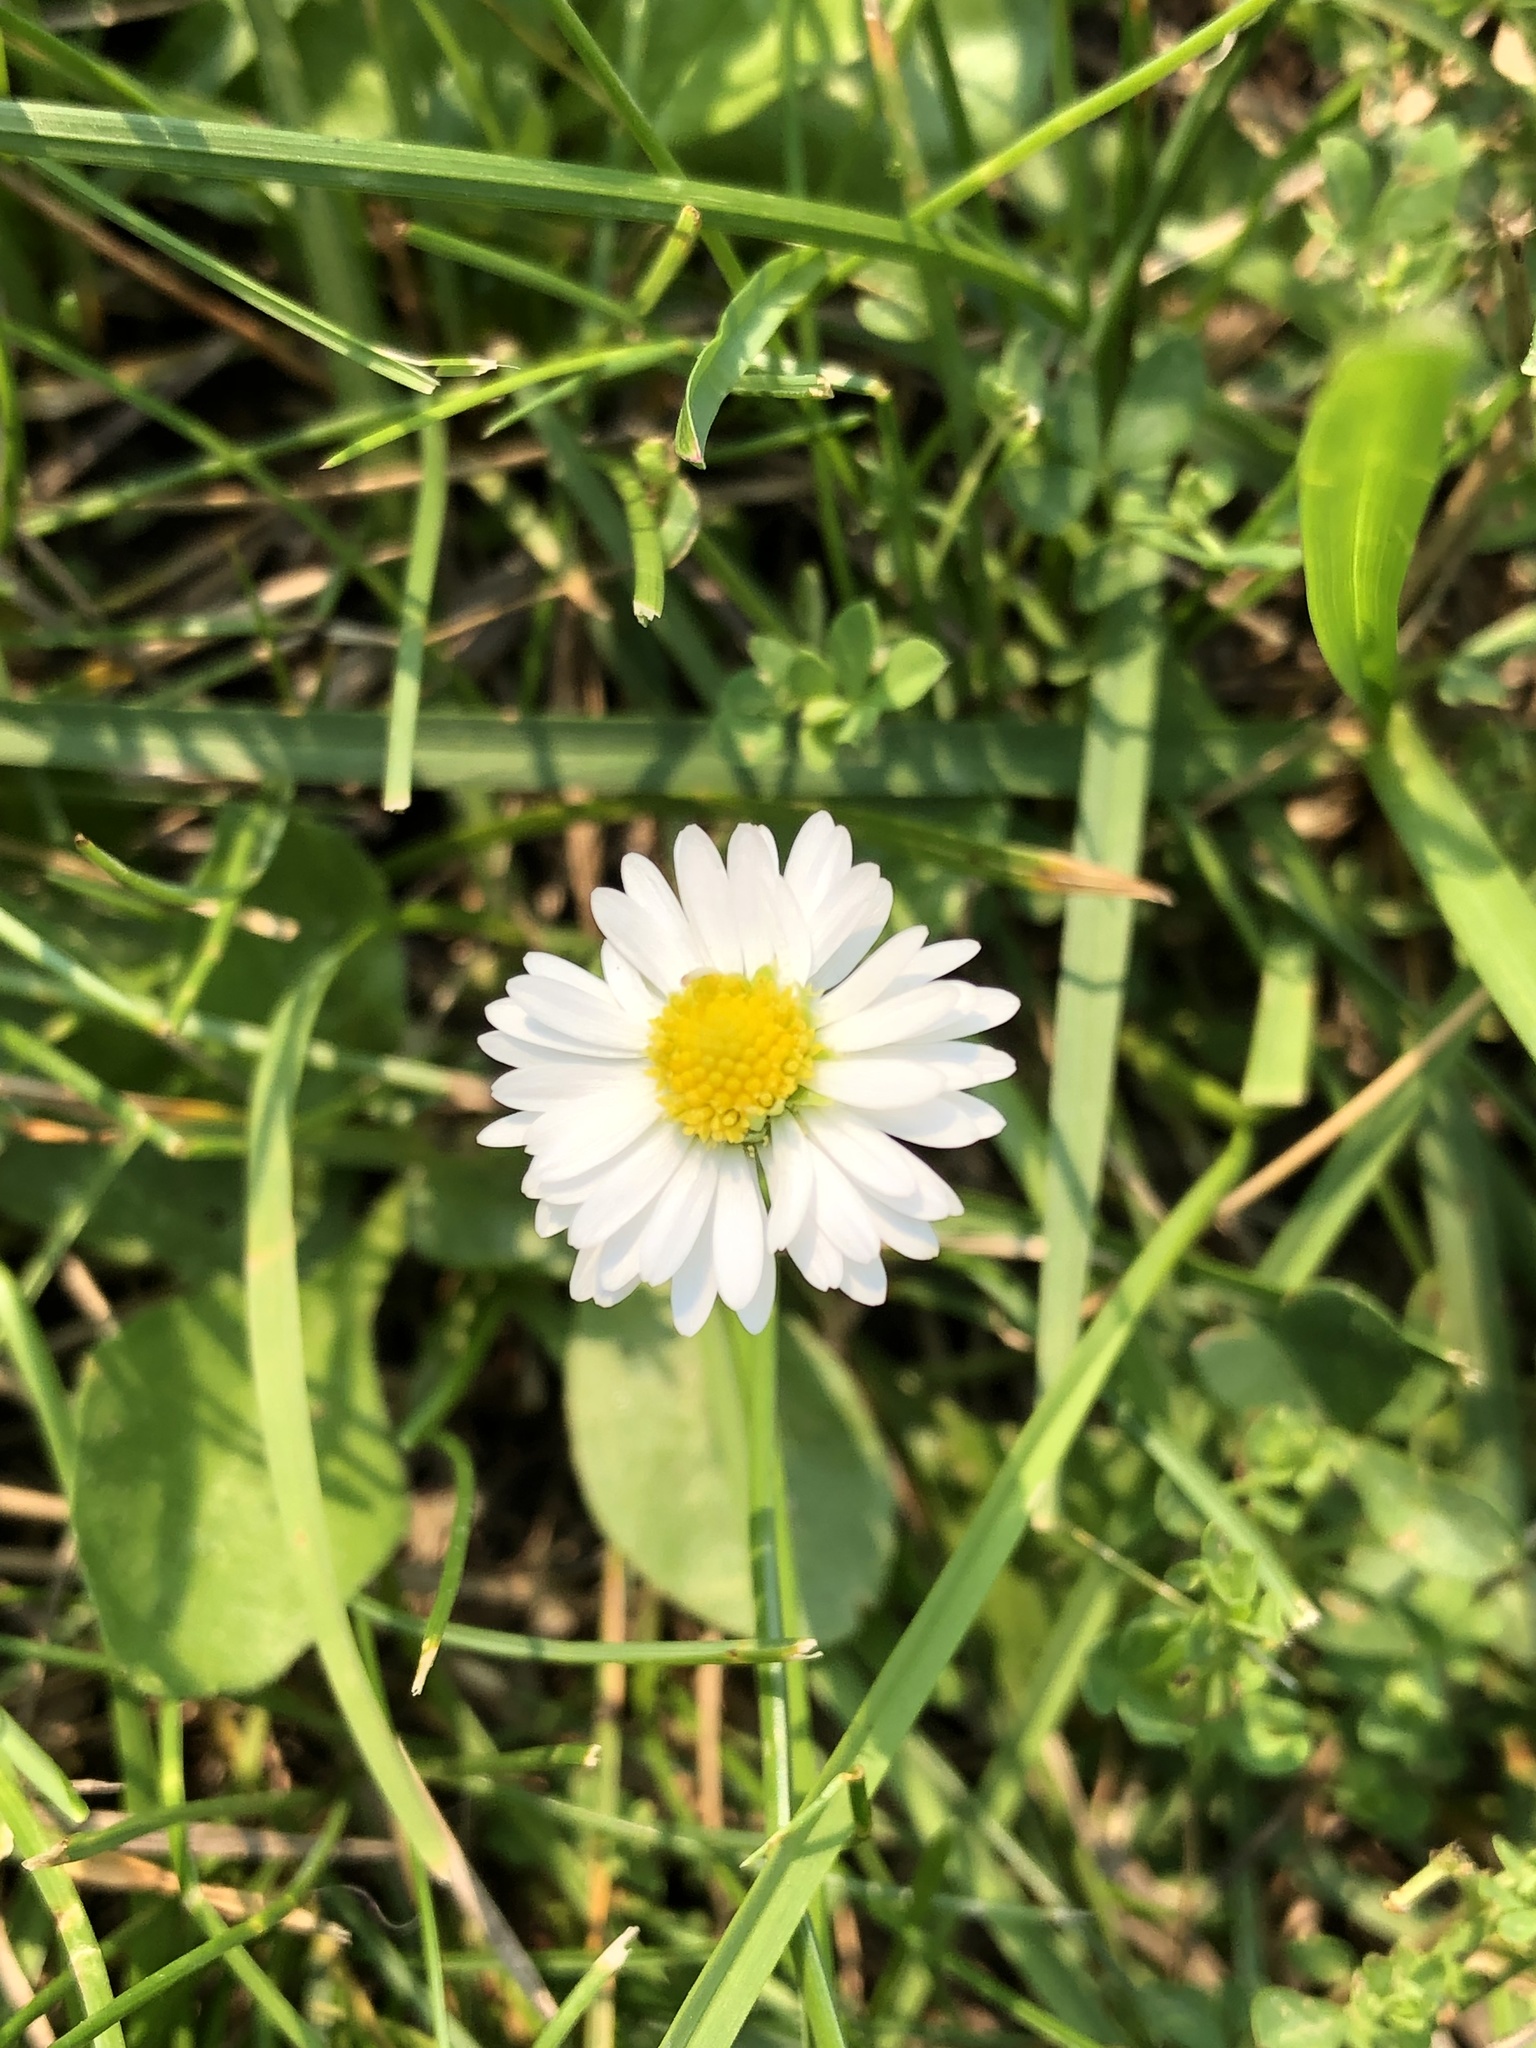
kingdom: Plantae
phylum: Tracheophyta
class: Magnoliopsida
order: Asterales
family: Asteraceae
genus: Bellis
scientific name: Bellis perennis
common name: Lawndaisy
